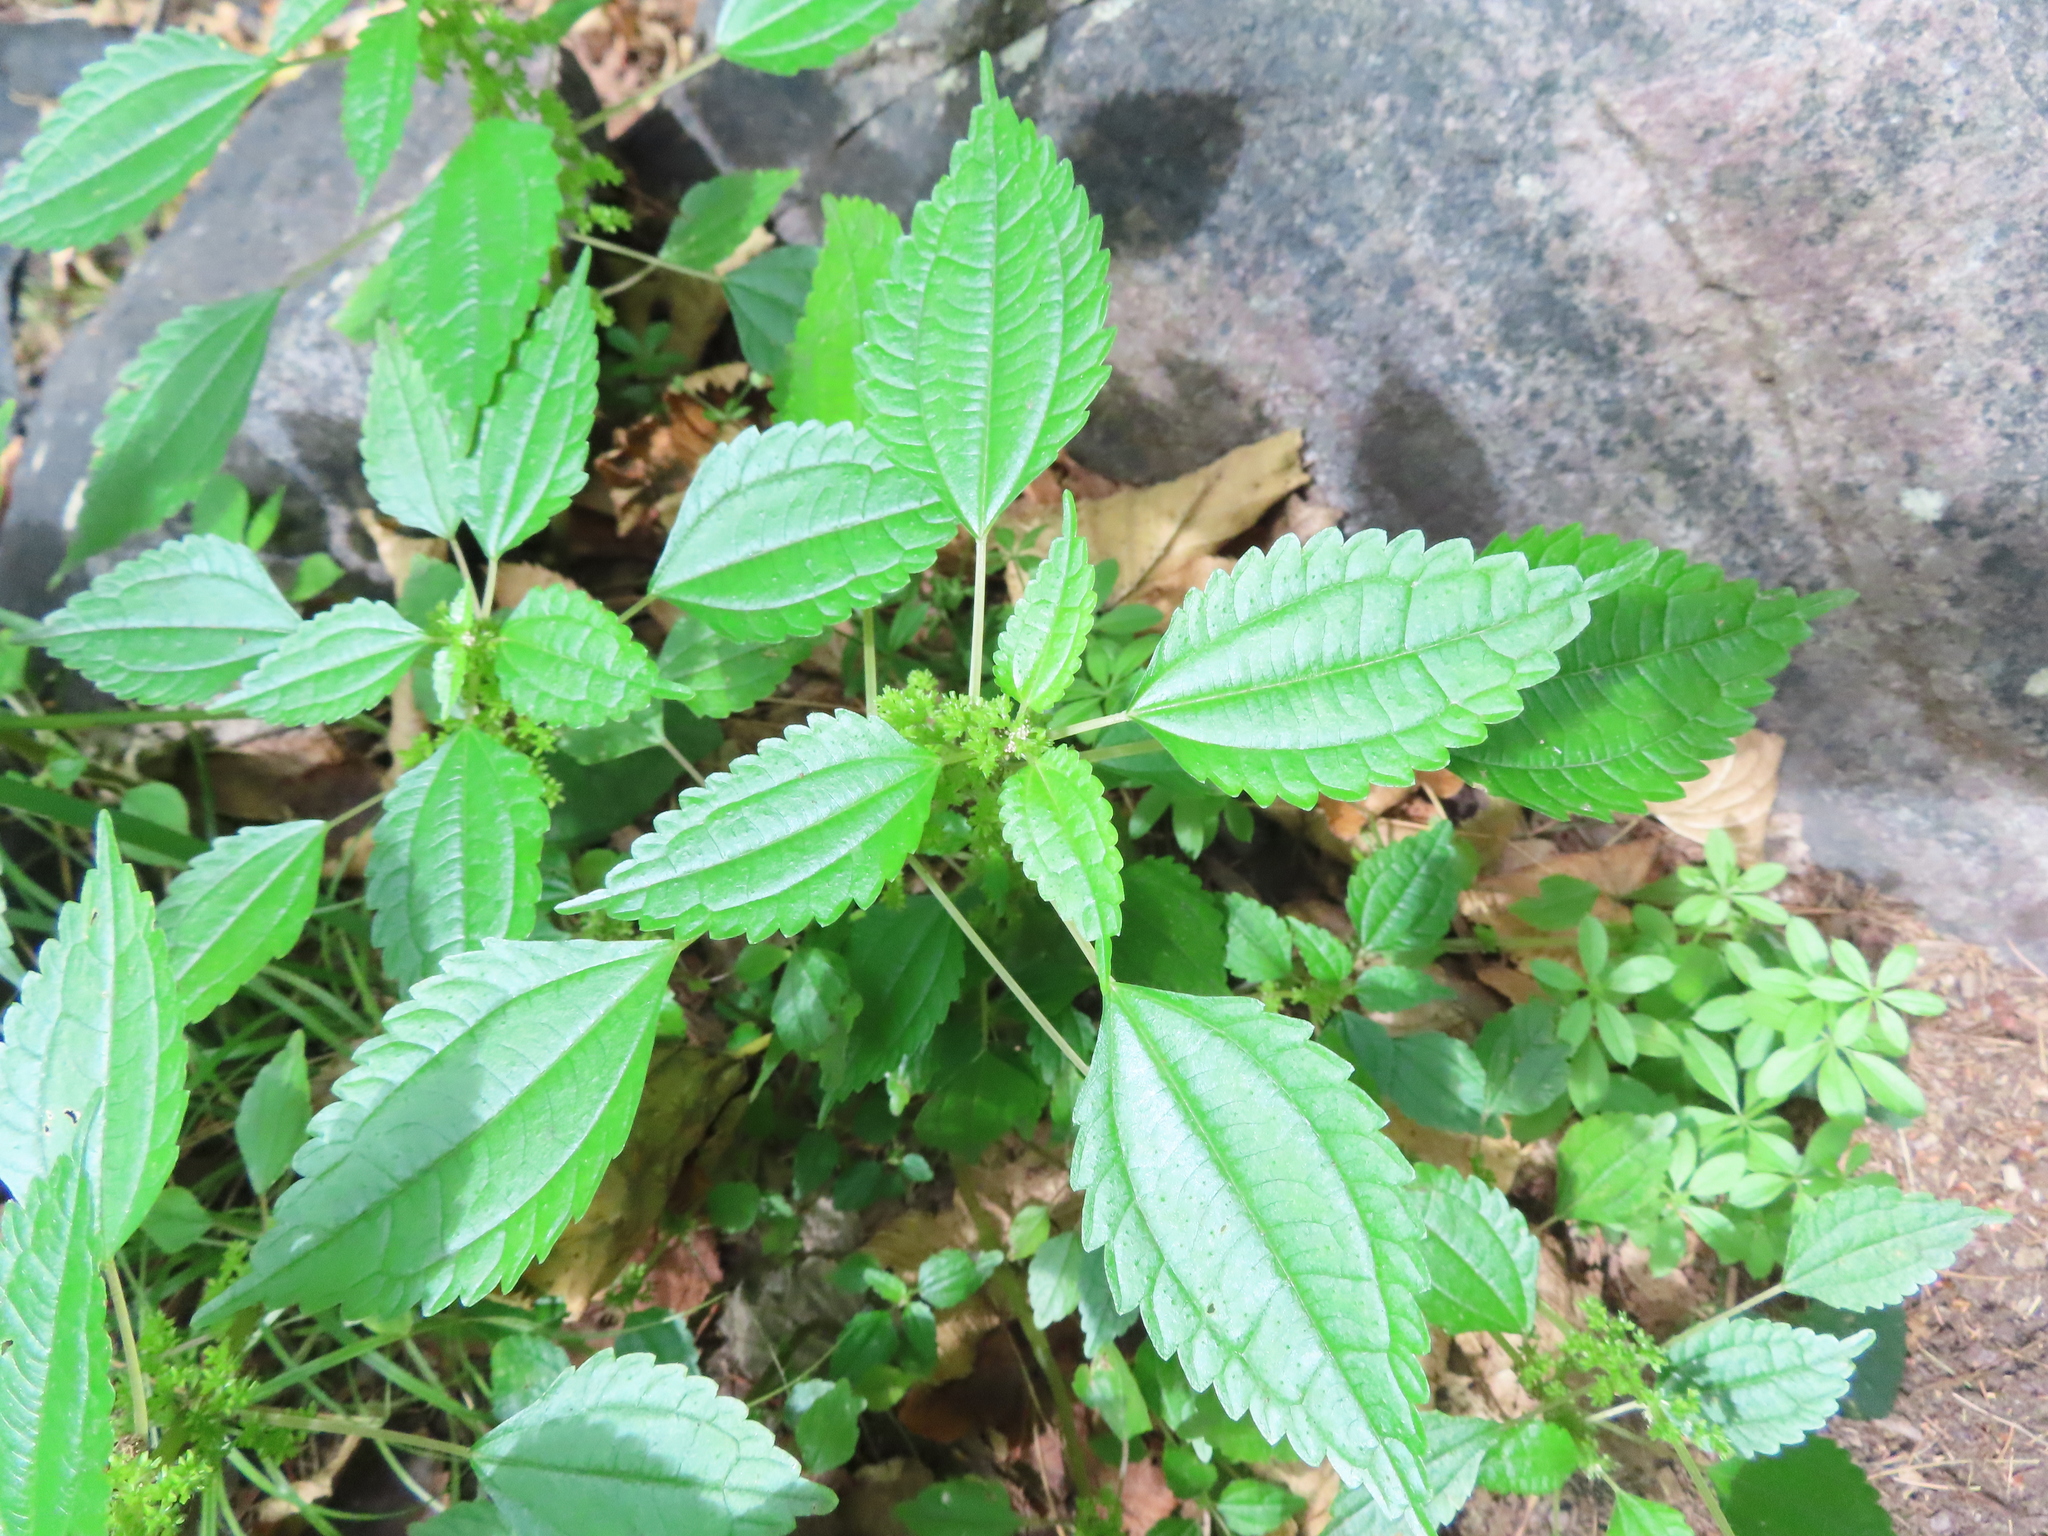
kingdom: Plantae
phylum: Tracheophyta
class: Magnoliopsida
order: Rosales
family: Urticaceae
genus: Pilea
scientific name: Pilea pumila
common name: Clearweed
